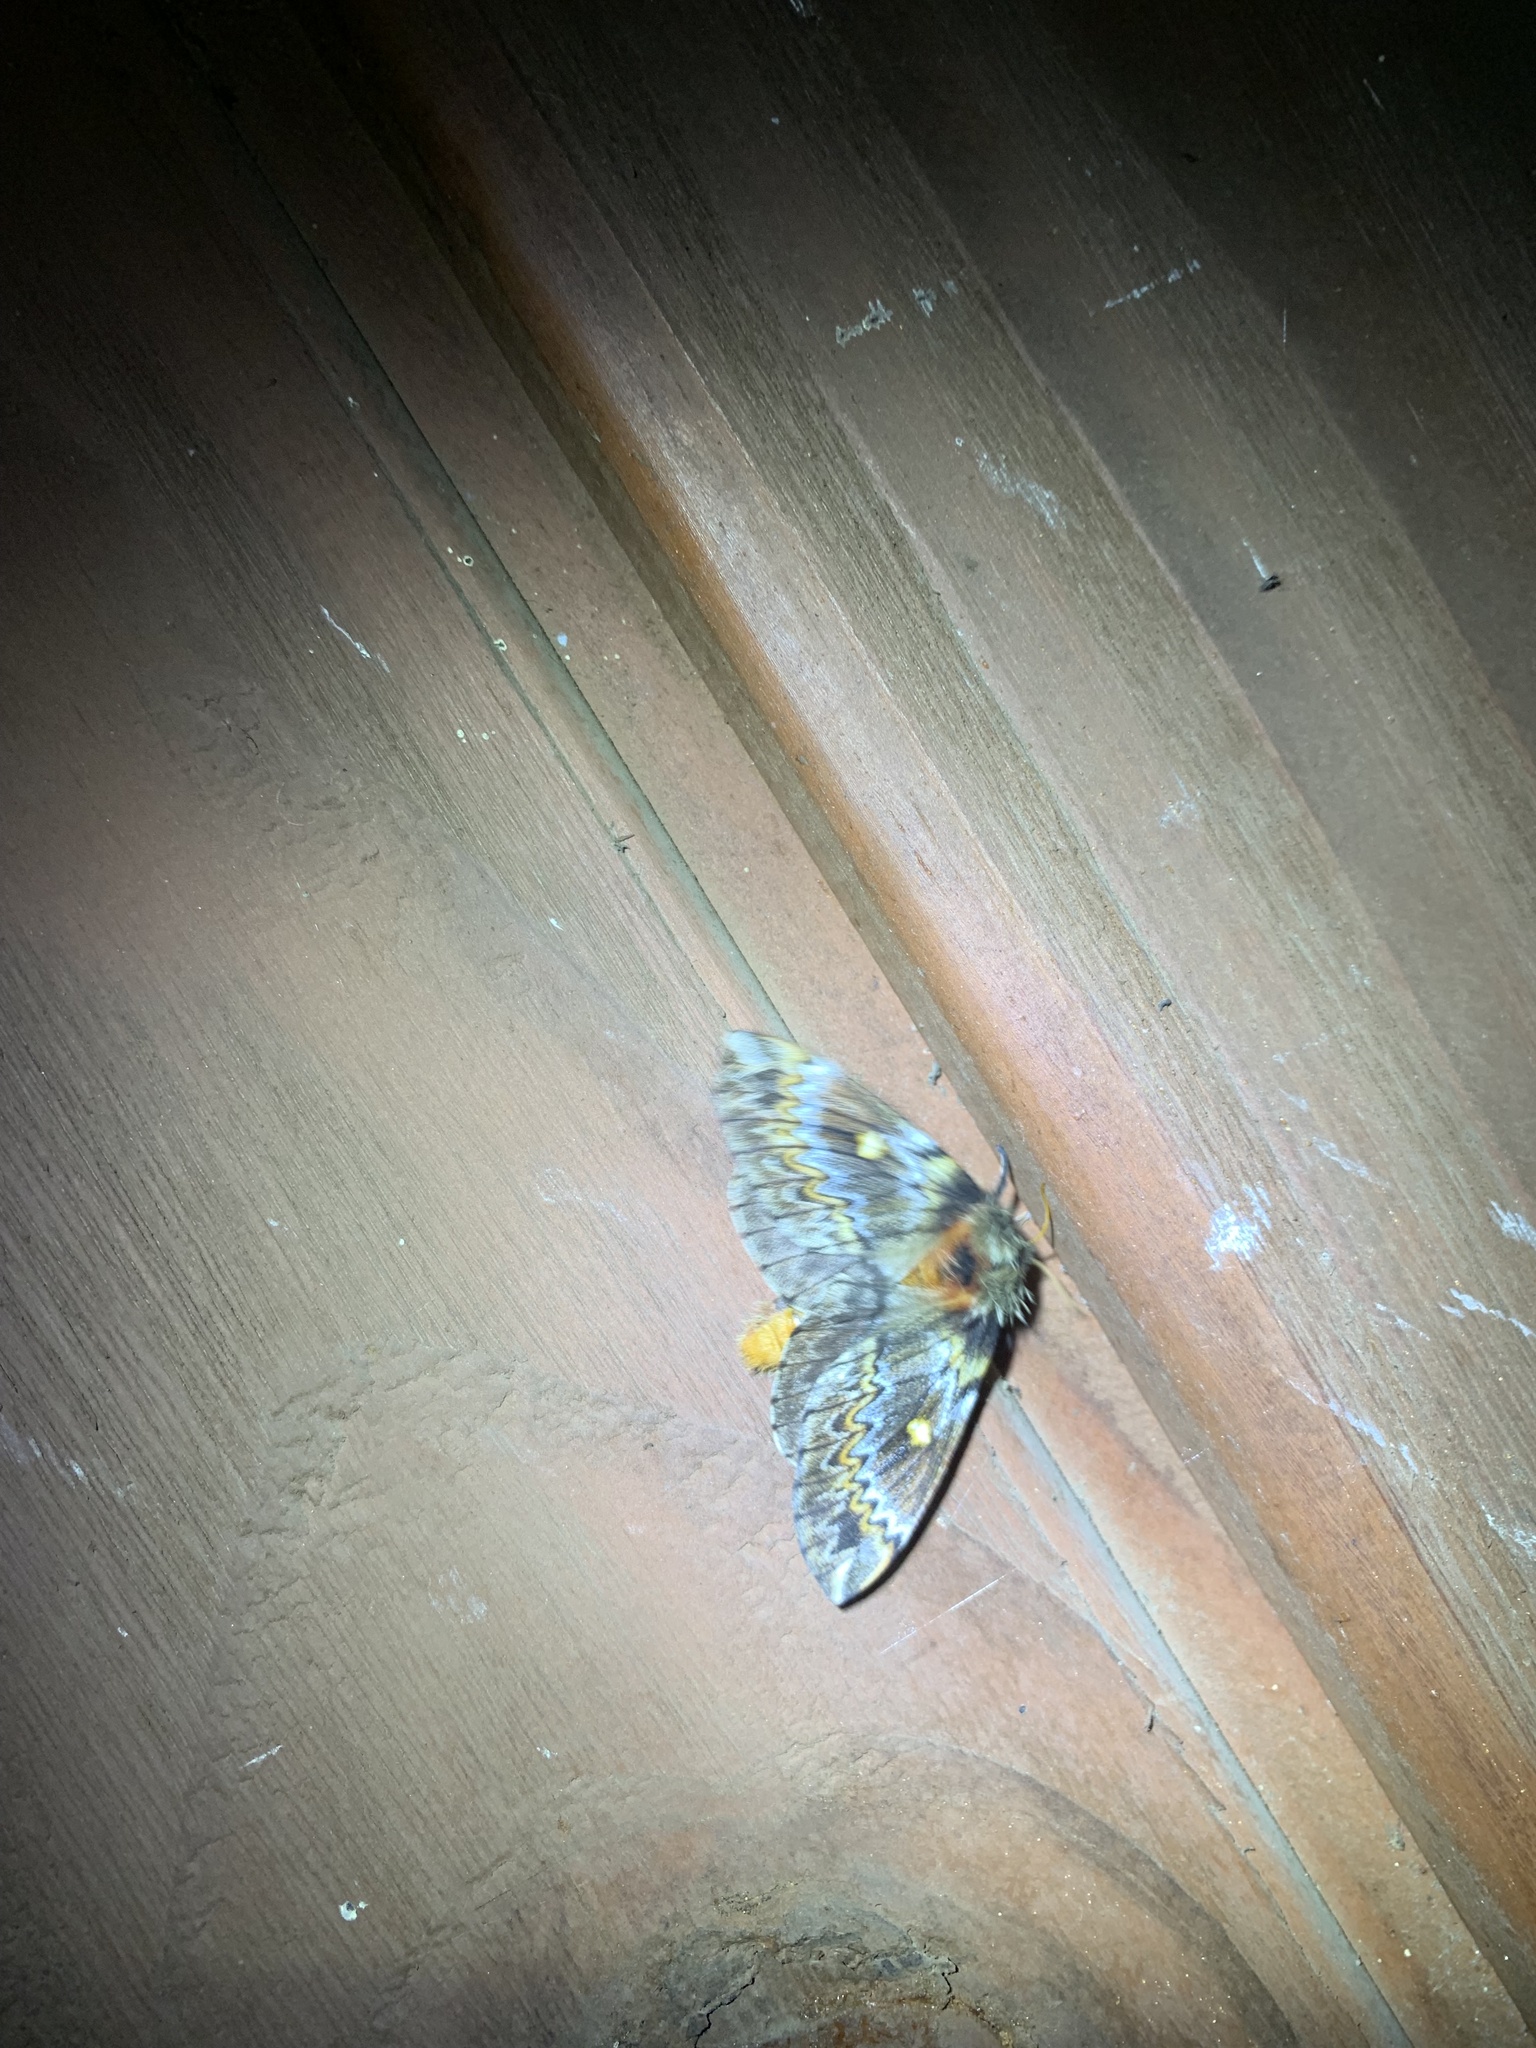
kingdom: Animalia
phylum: Arthropoda
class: Insecta
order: Lepidoptera
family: Saturniidae
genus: Ormiscodes
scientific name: Ormiscodes schmidtnielseni
